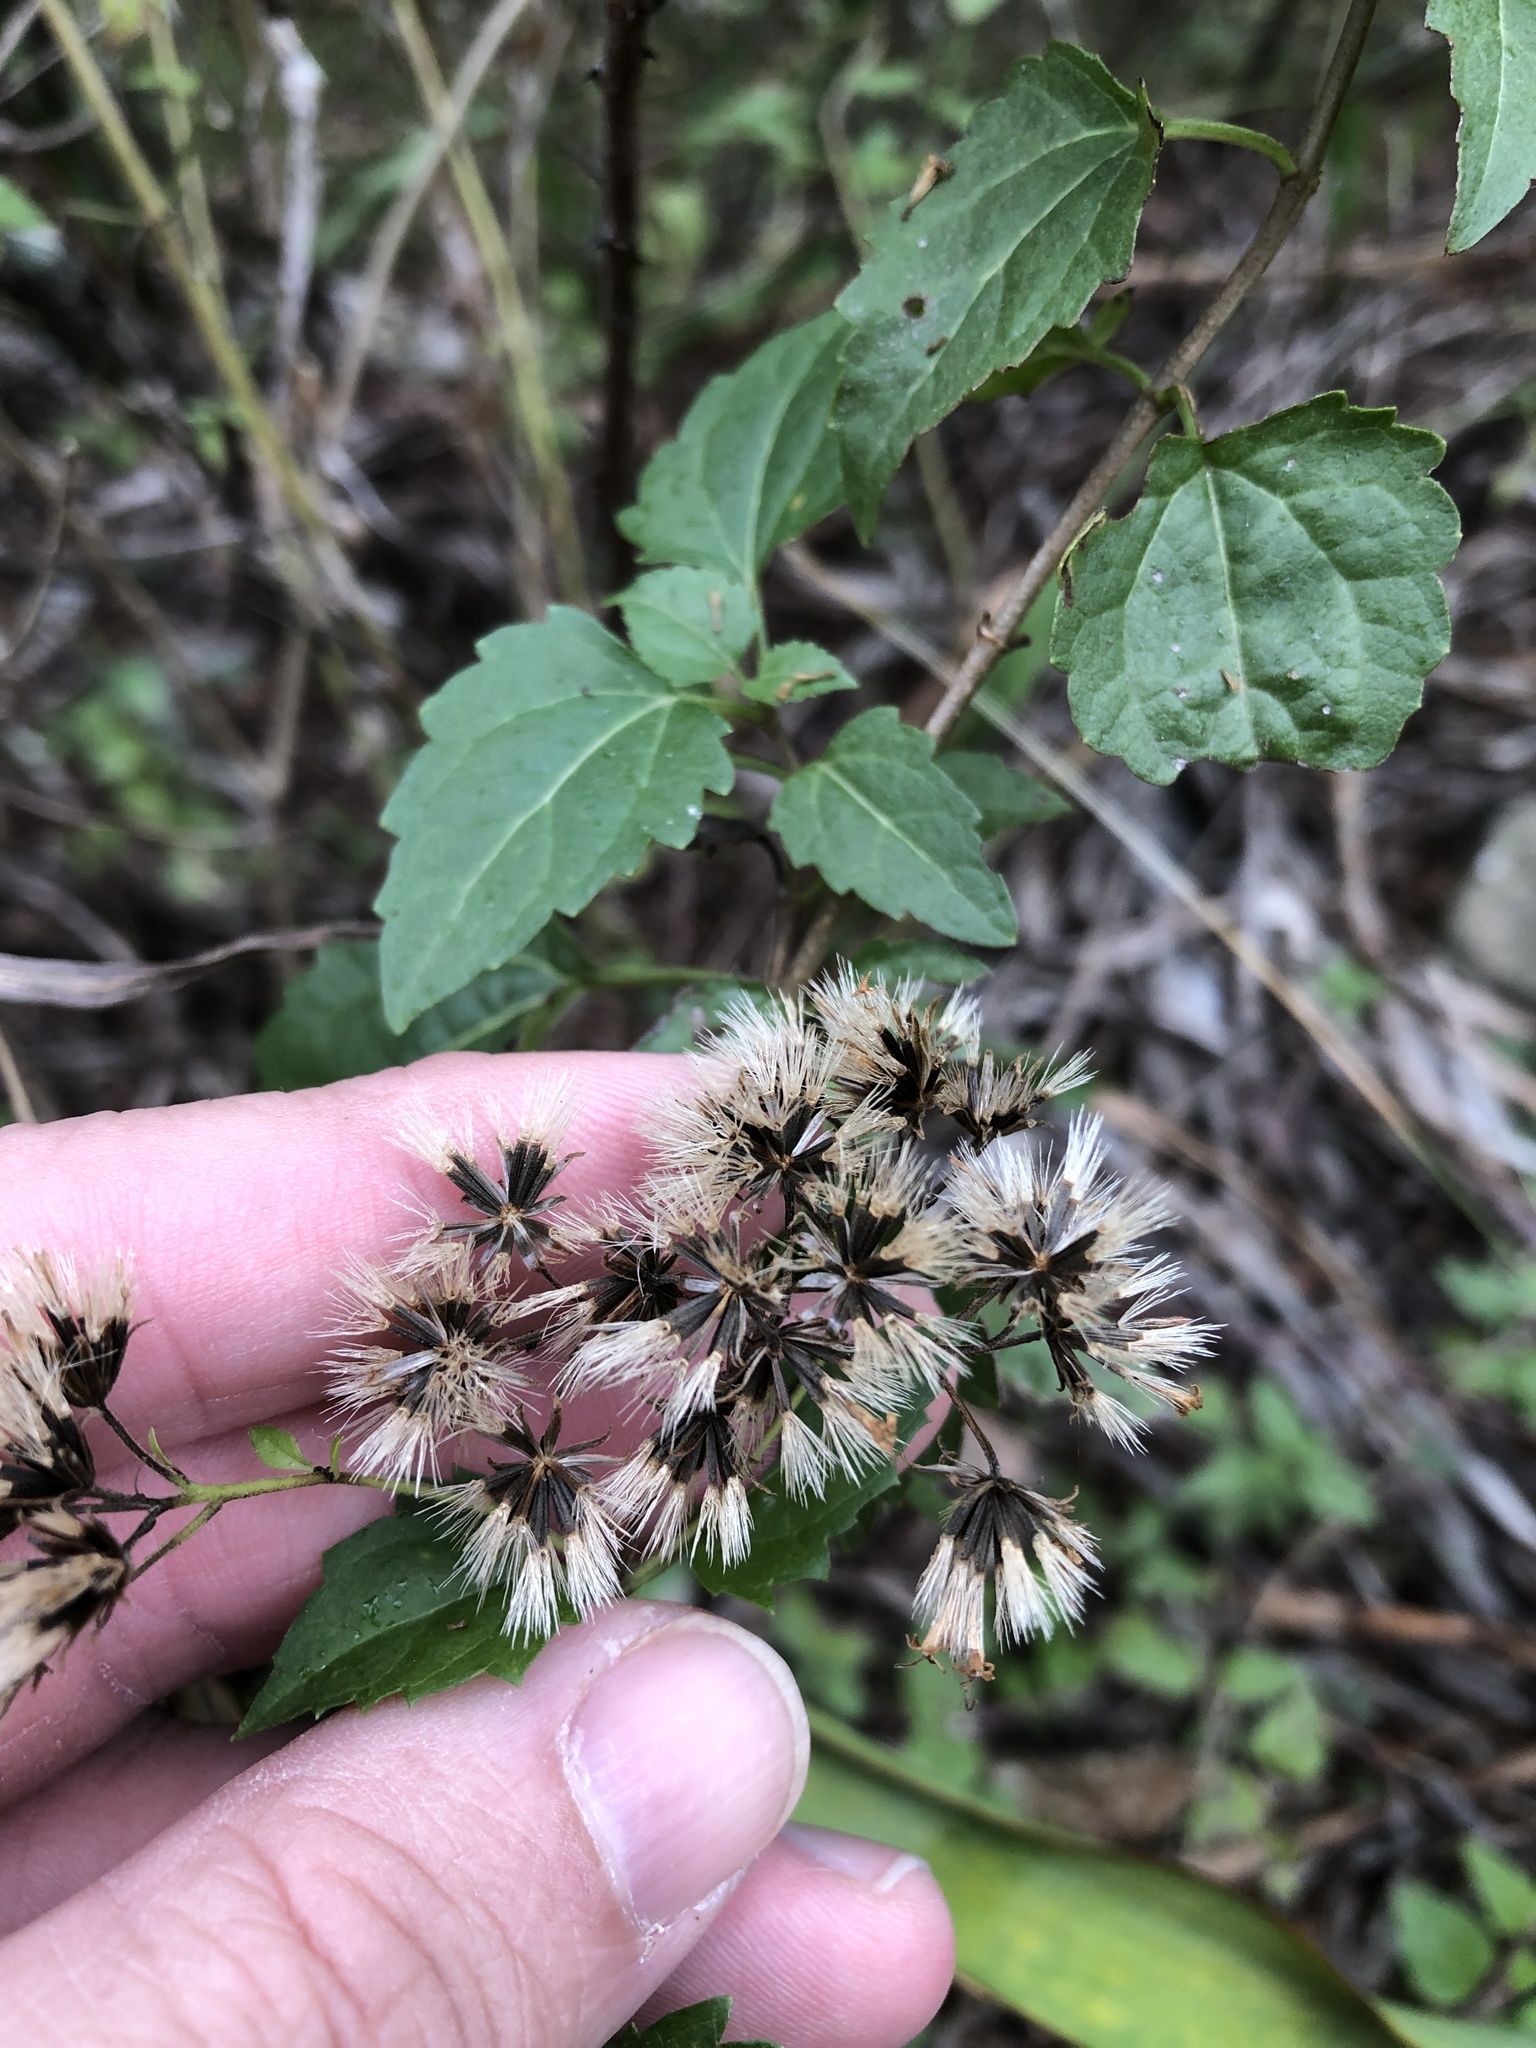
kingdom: Plantae
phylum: Tracheophyta
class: Magnoliopsida
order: Asterales
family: Asteraceae
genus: Ageratina
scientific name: Ageratina havanensis
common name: Havana snakeroot
